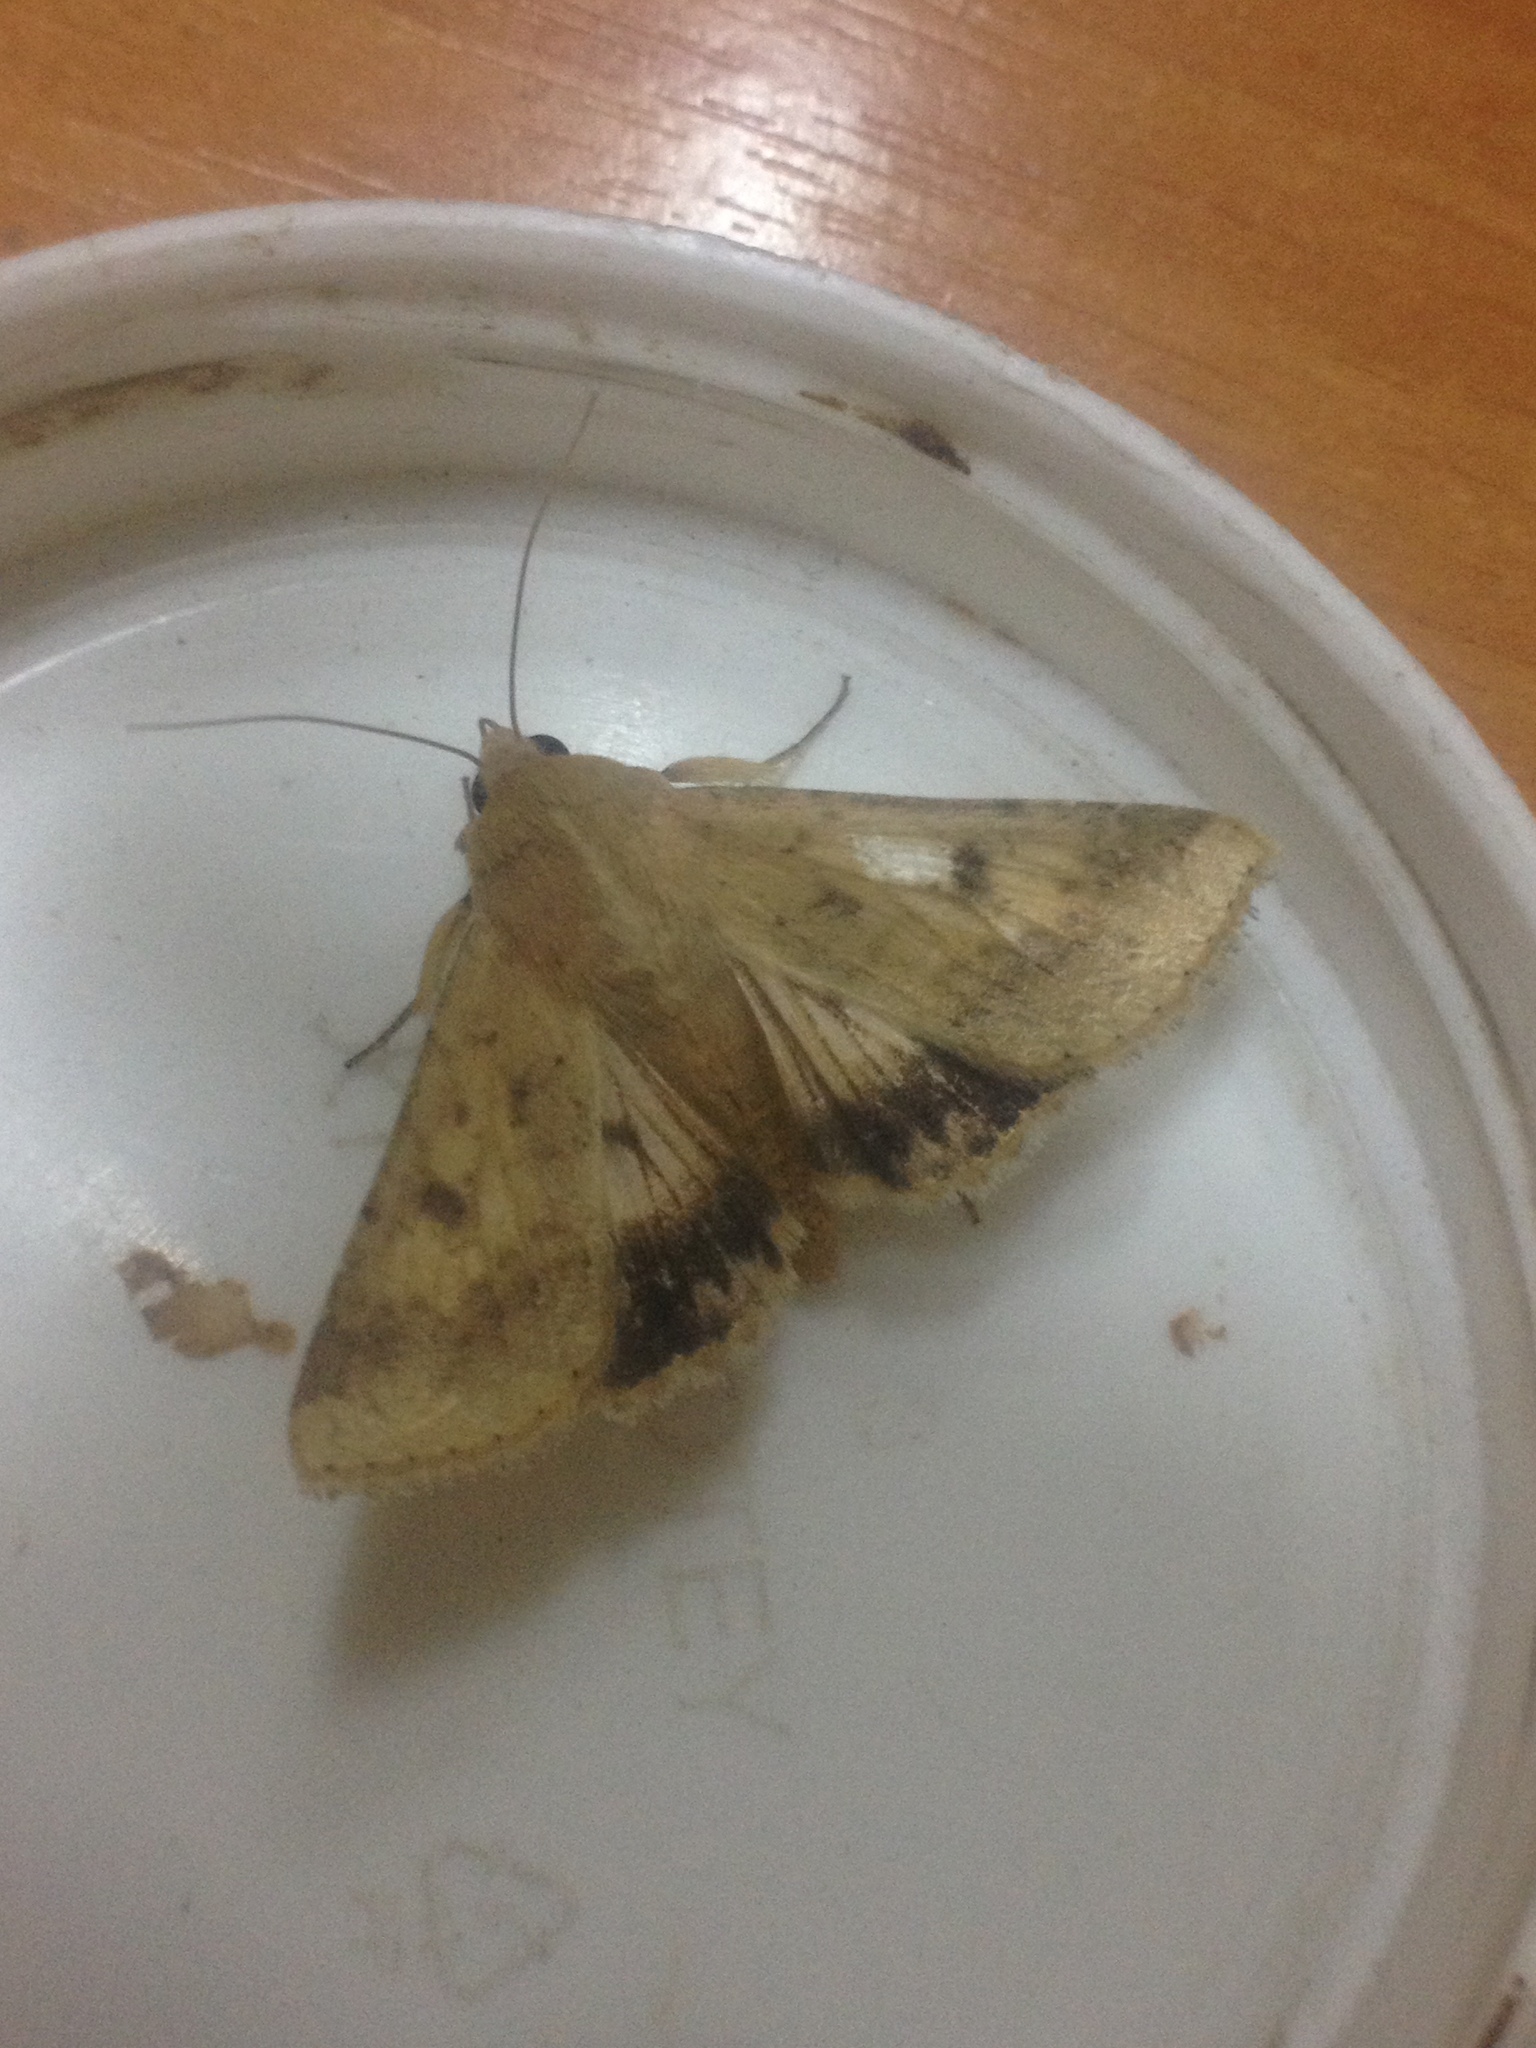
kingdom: Animalia
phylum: Arthropoda
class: Insecta
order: Lepidoptera
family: Noctuidae
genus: Helicoverpa
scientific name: Helicoverpa armigera
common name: Cotton bollworm
